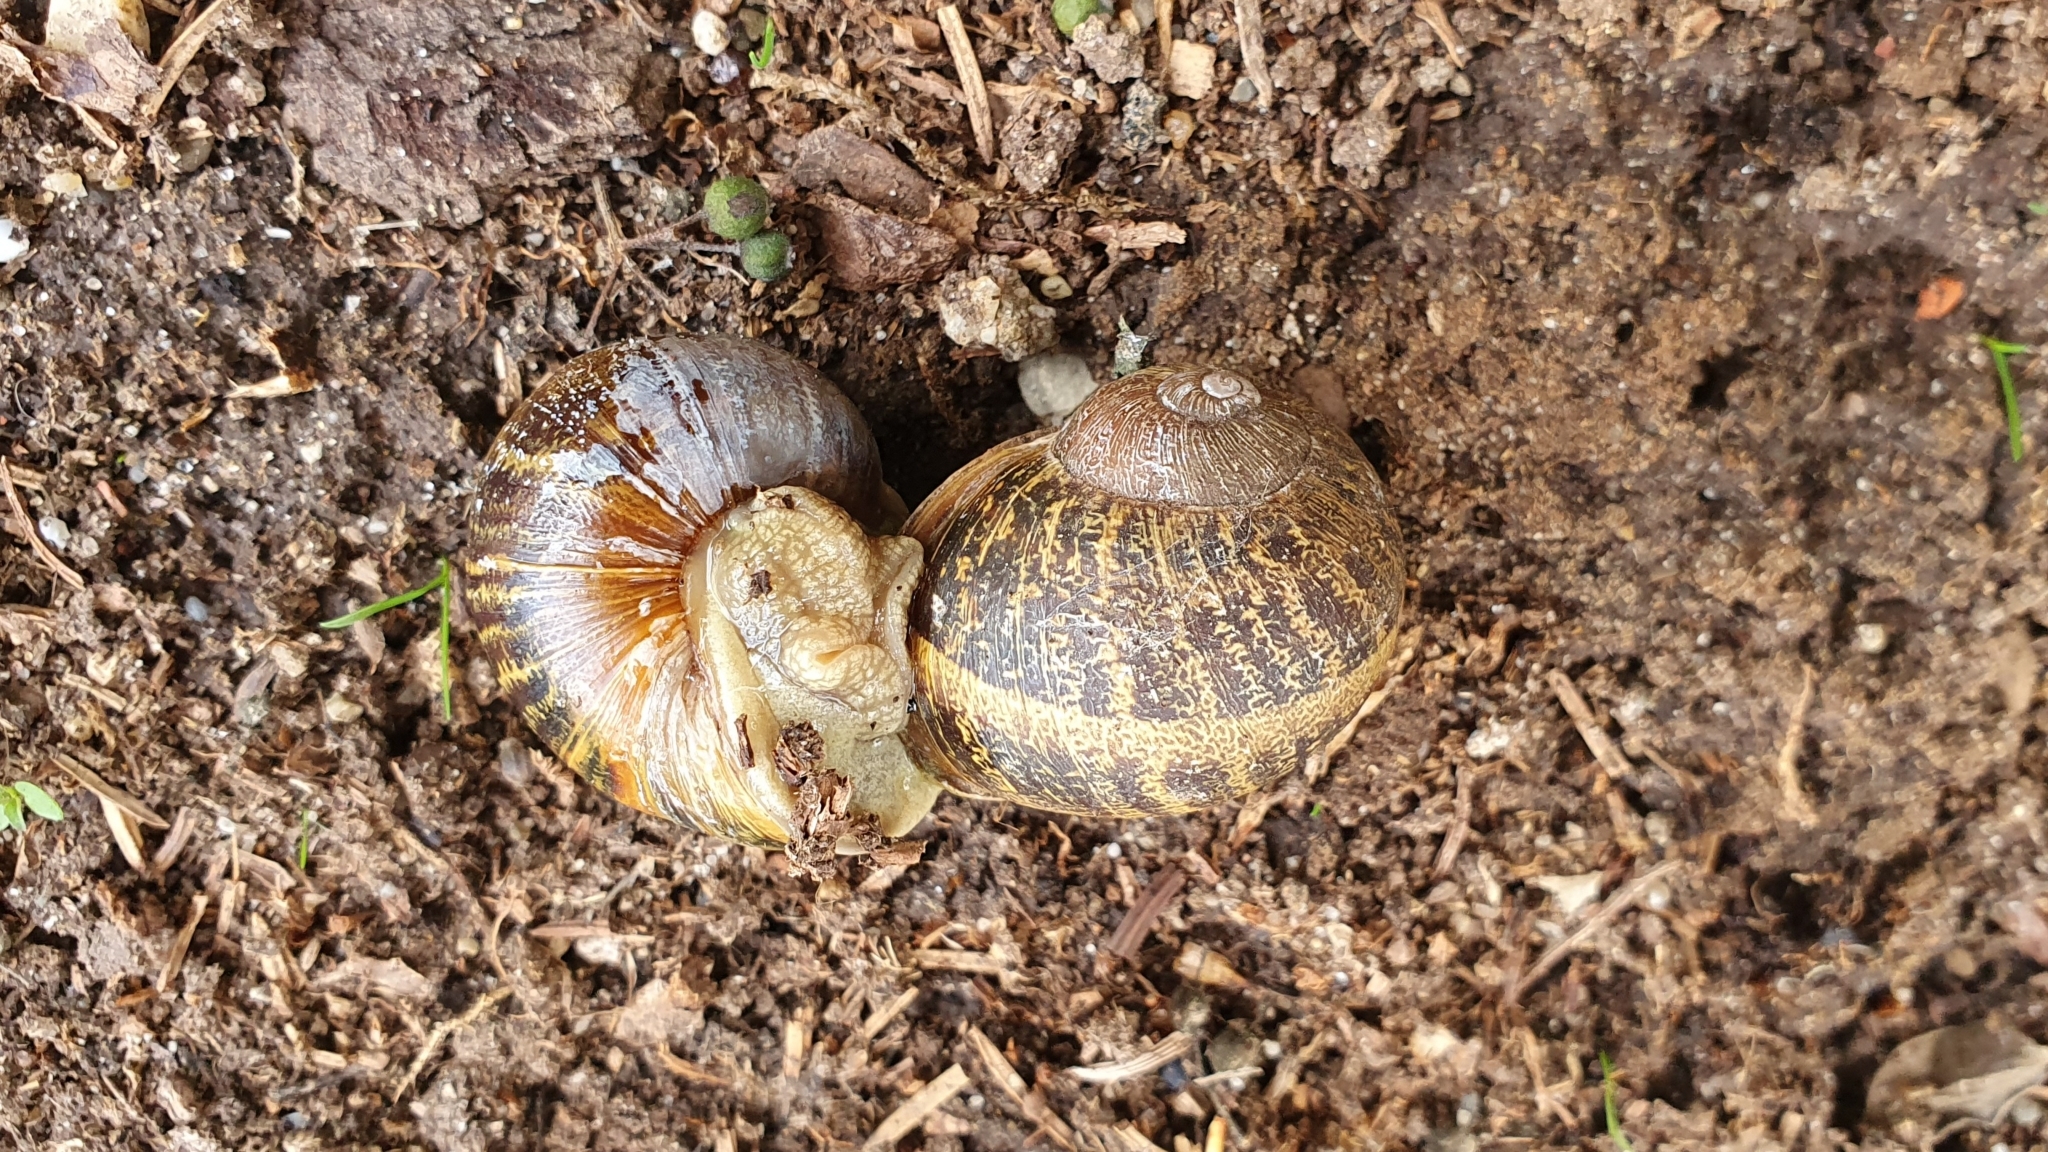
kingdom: Animalia
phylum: Mollusca
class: Gastropoda
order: Stylommatophora
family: Helicidae
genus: Cornu
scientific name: Cornu aspersum
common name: Brown garden snail
